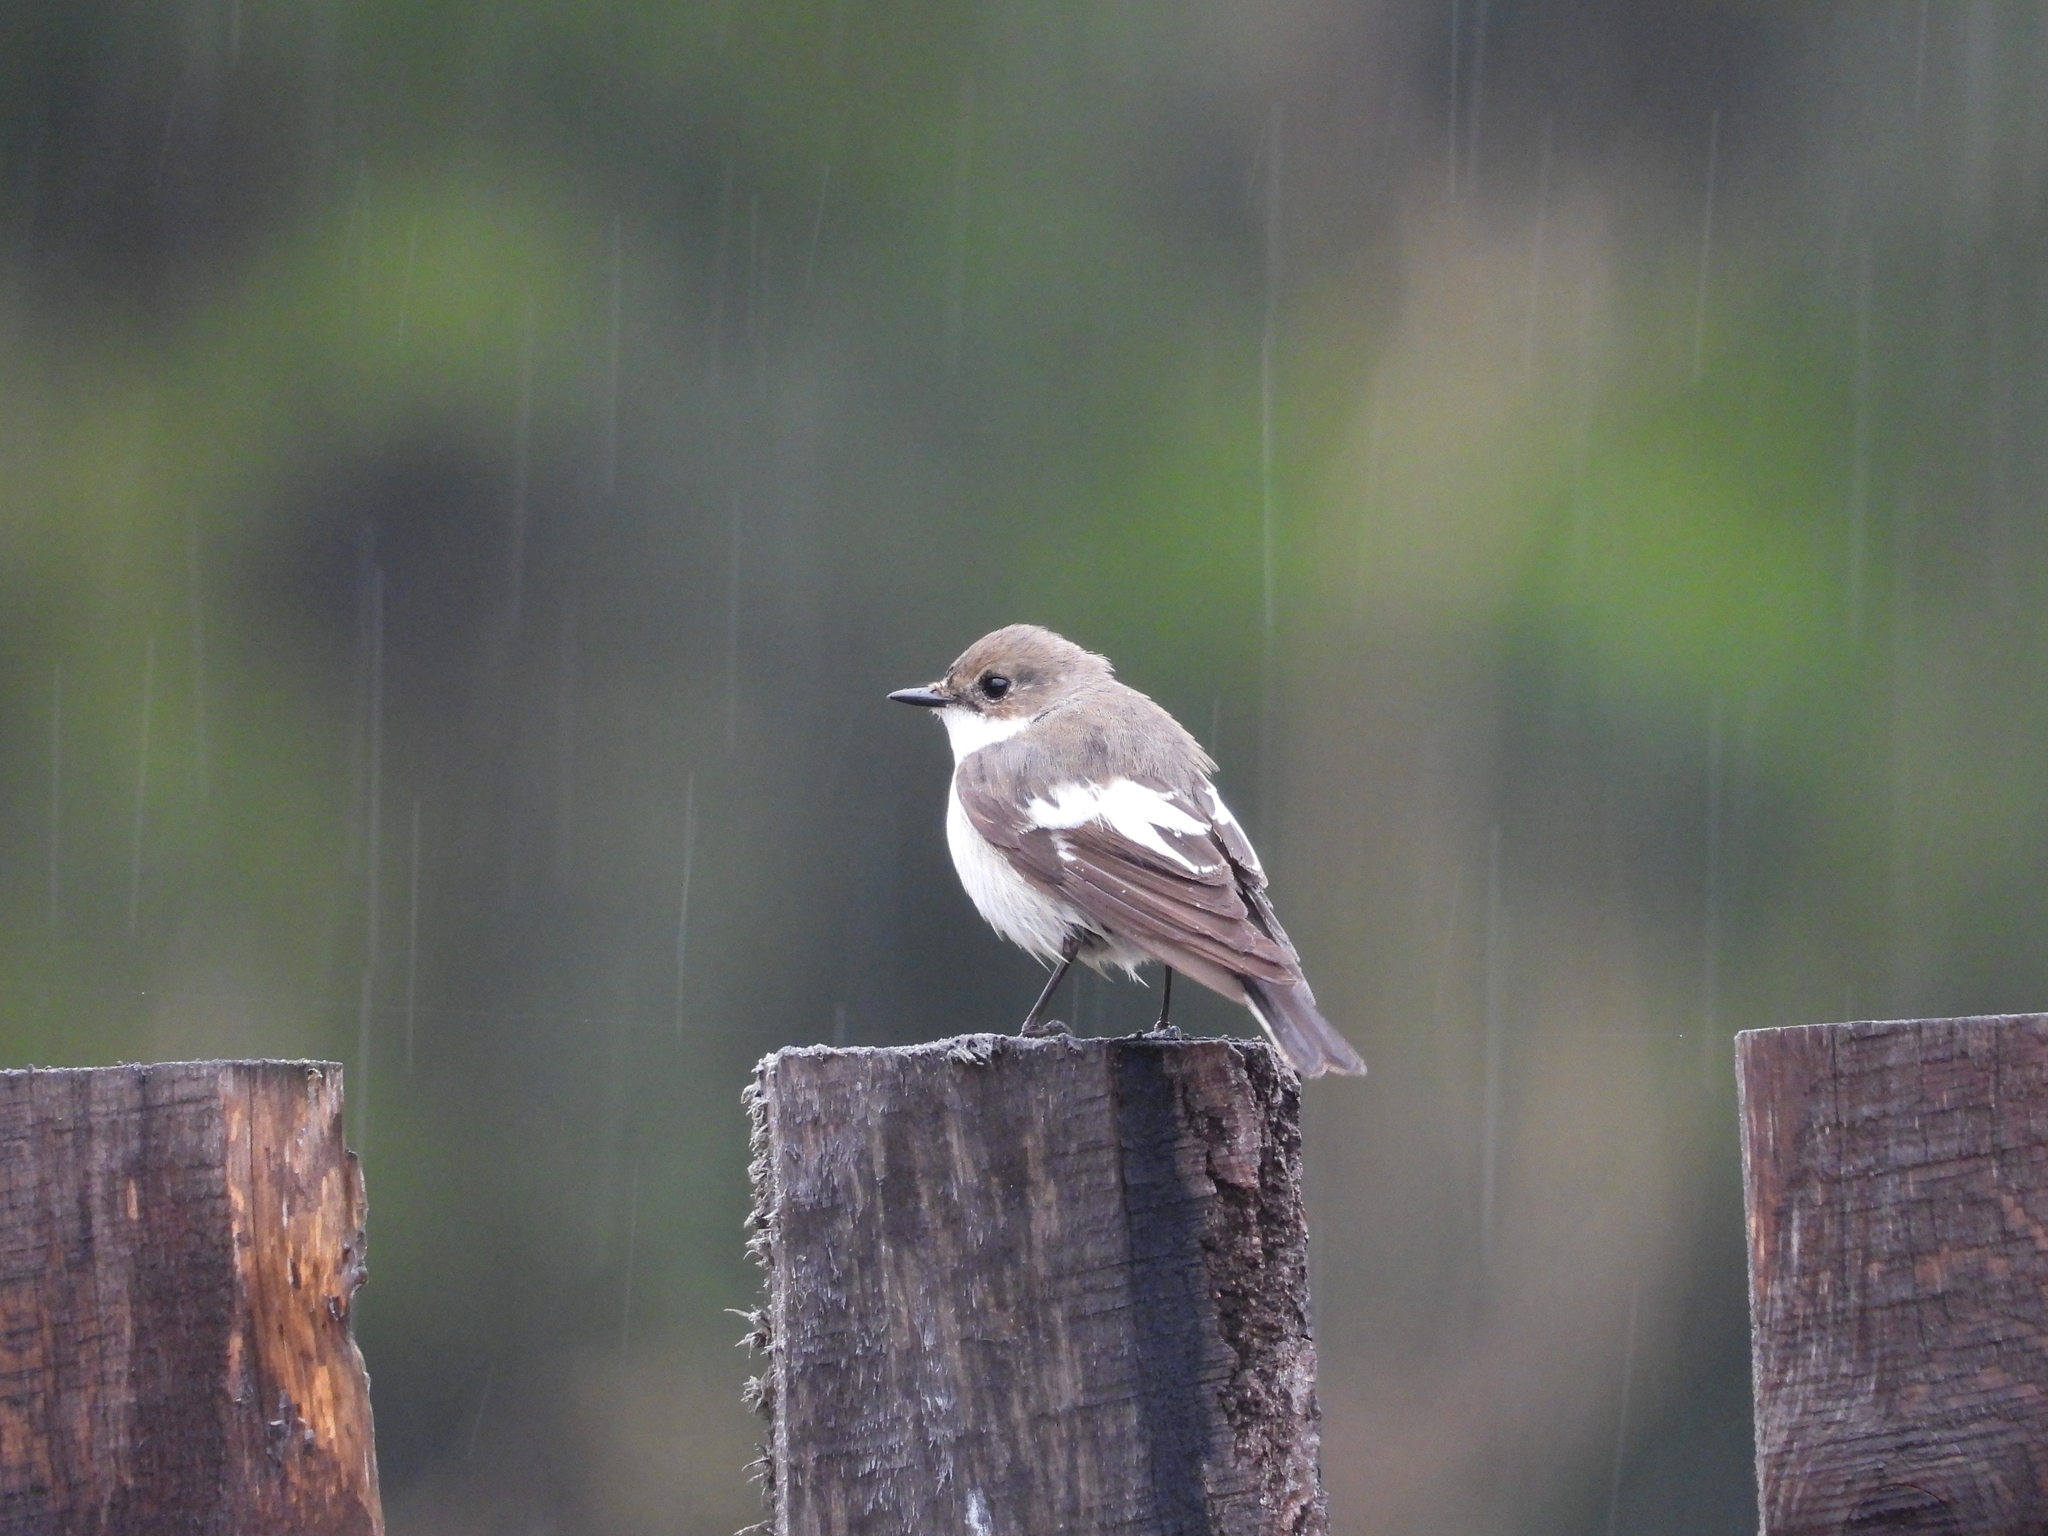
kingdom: Animalia
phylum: Chordata
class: Aves
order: Passeriformes
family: Muscicapidae
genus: Ficedula
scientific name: Ficedula hypoleuca
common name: European pied flycatcher
